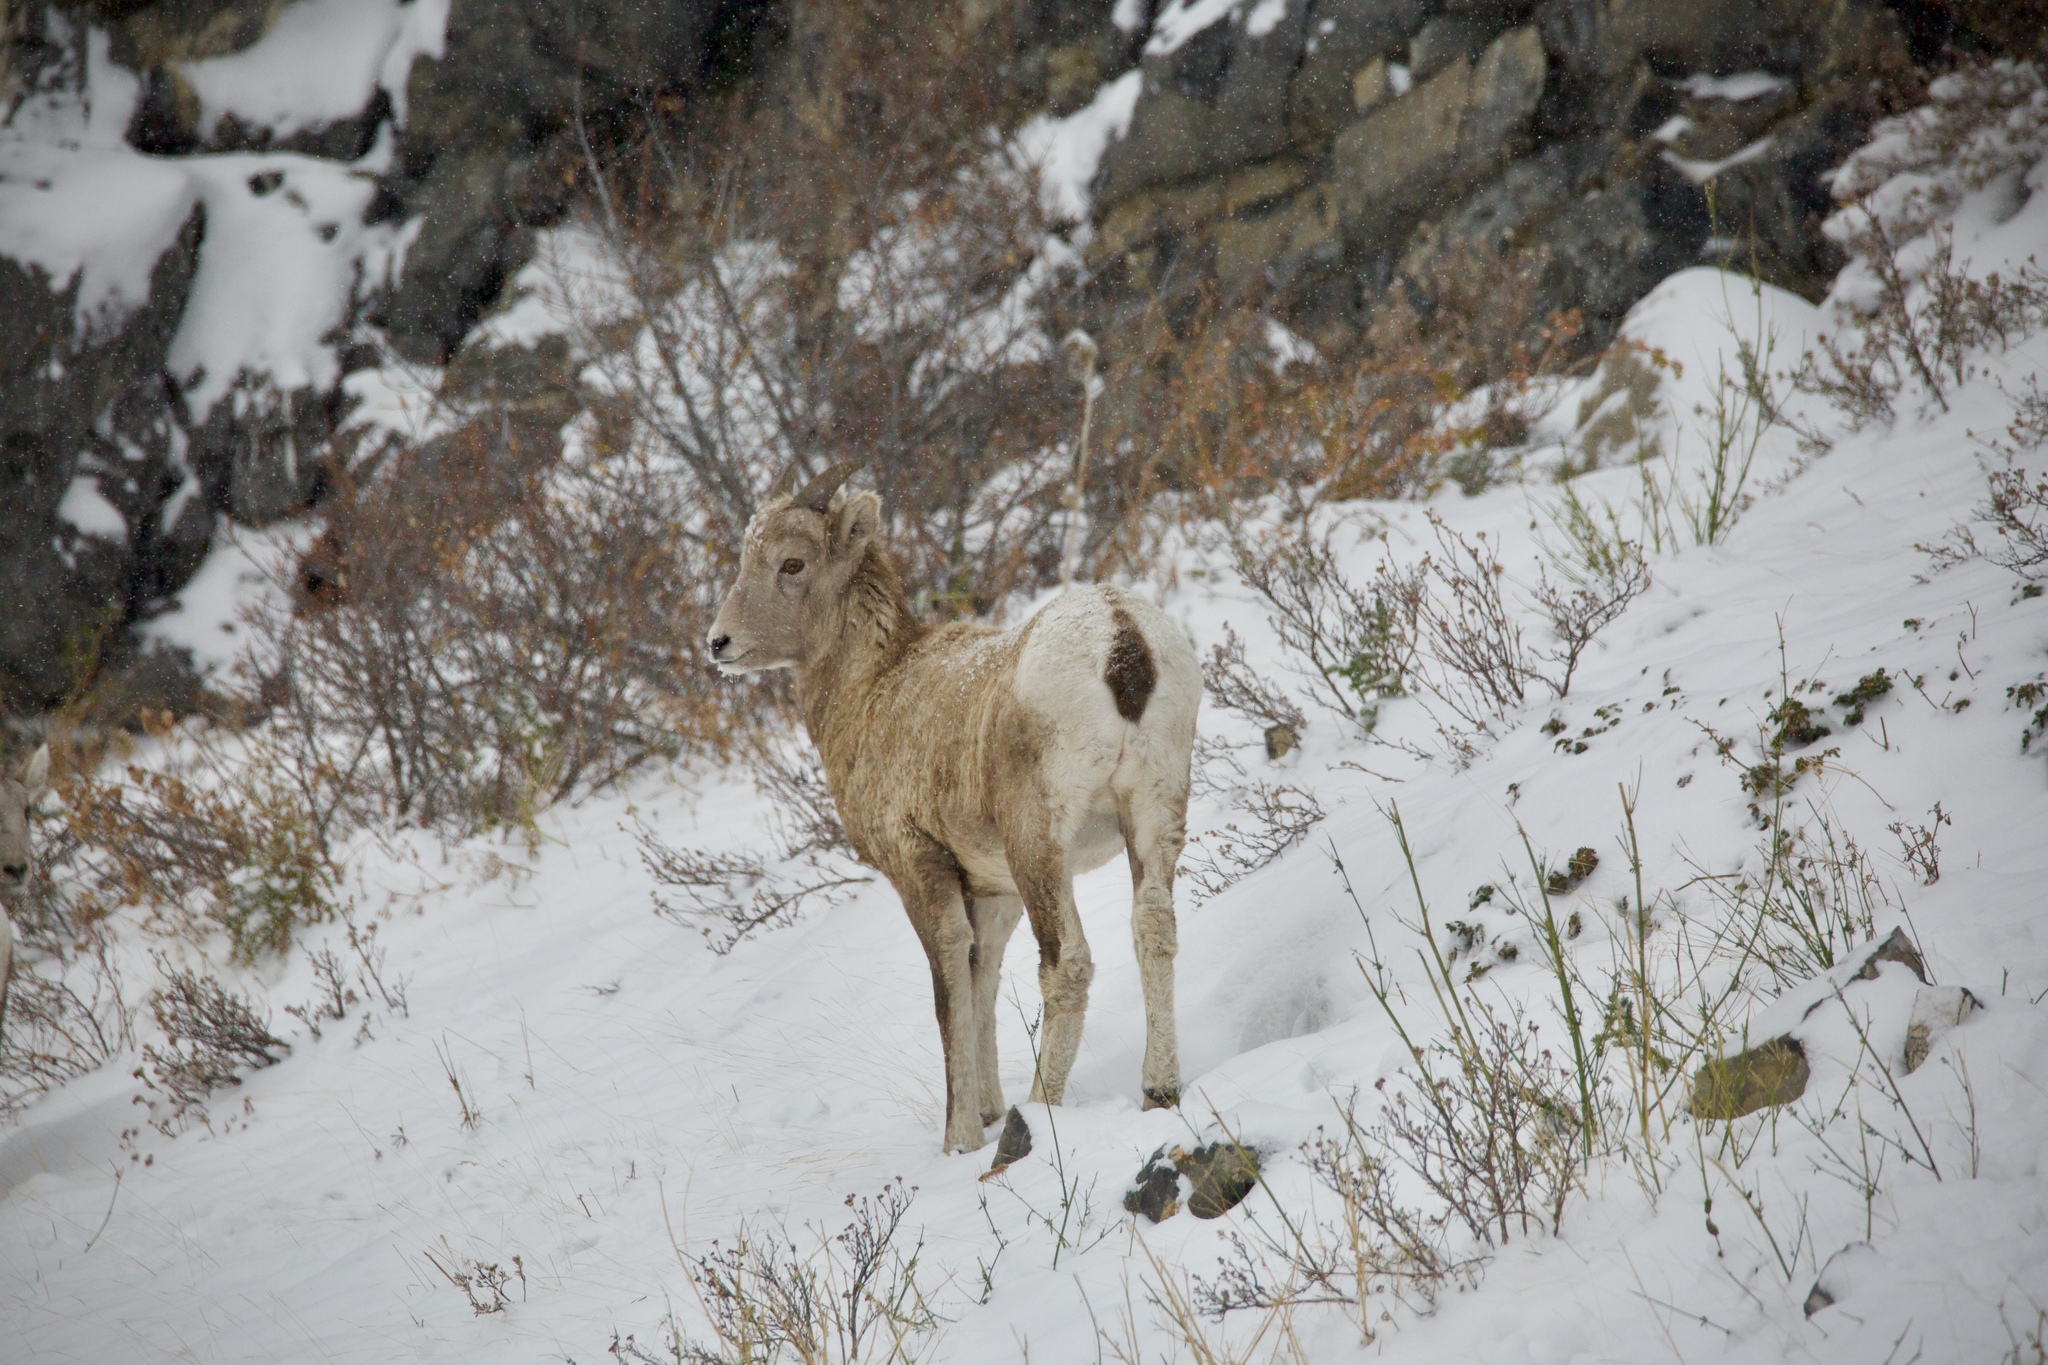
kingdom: Animalia
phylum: Chordata
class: Mammalia
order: Artiodactyla
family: Bovidae
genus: Ovis
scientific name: Ovis canadensis
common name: Bighorn sheep
